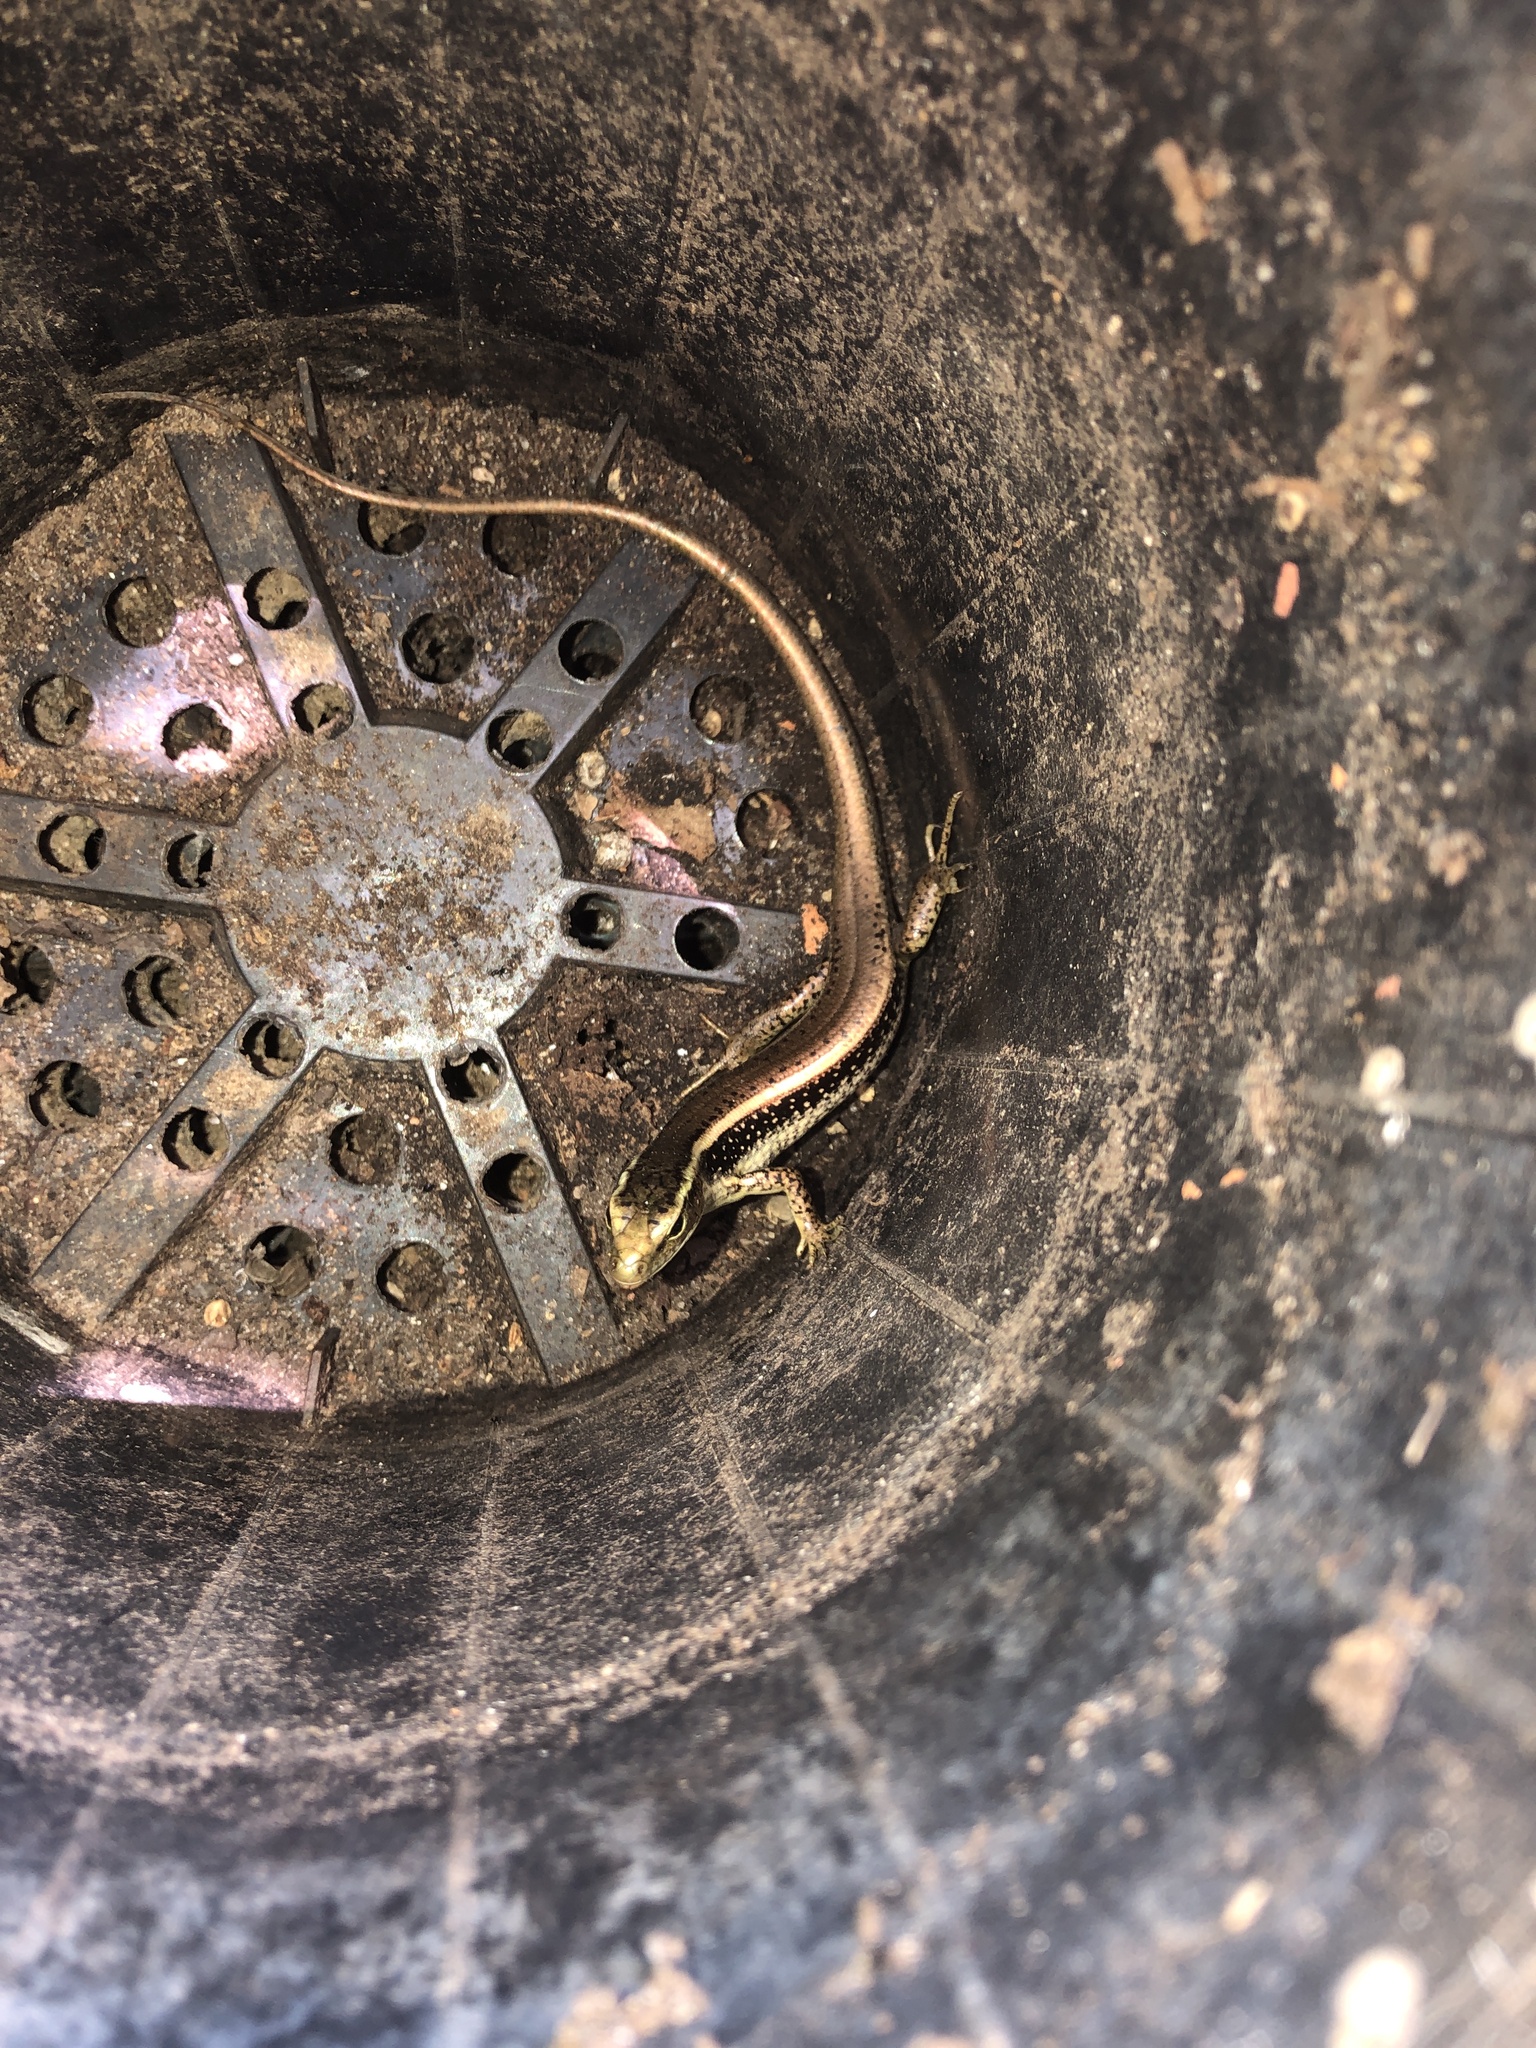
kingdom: Animalia
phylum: Chordata
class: Squamata
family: Scincidae
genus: Eulamprus
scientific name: Eulamprus quoyii
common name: Eastern water skink
